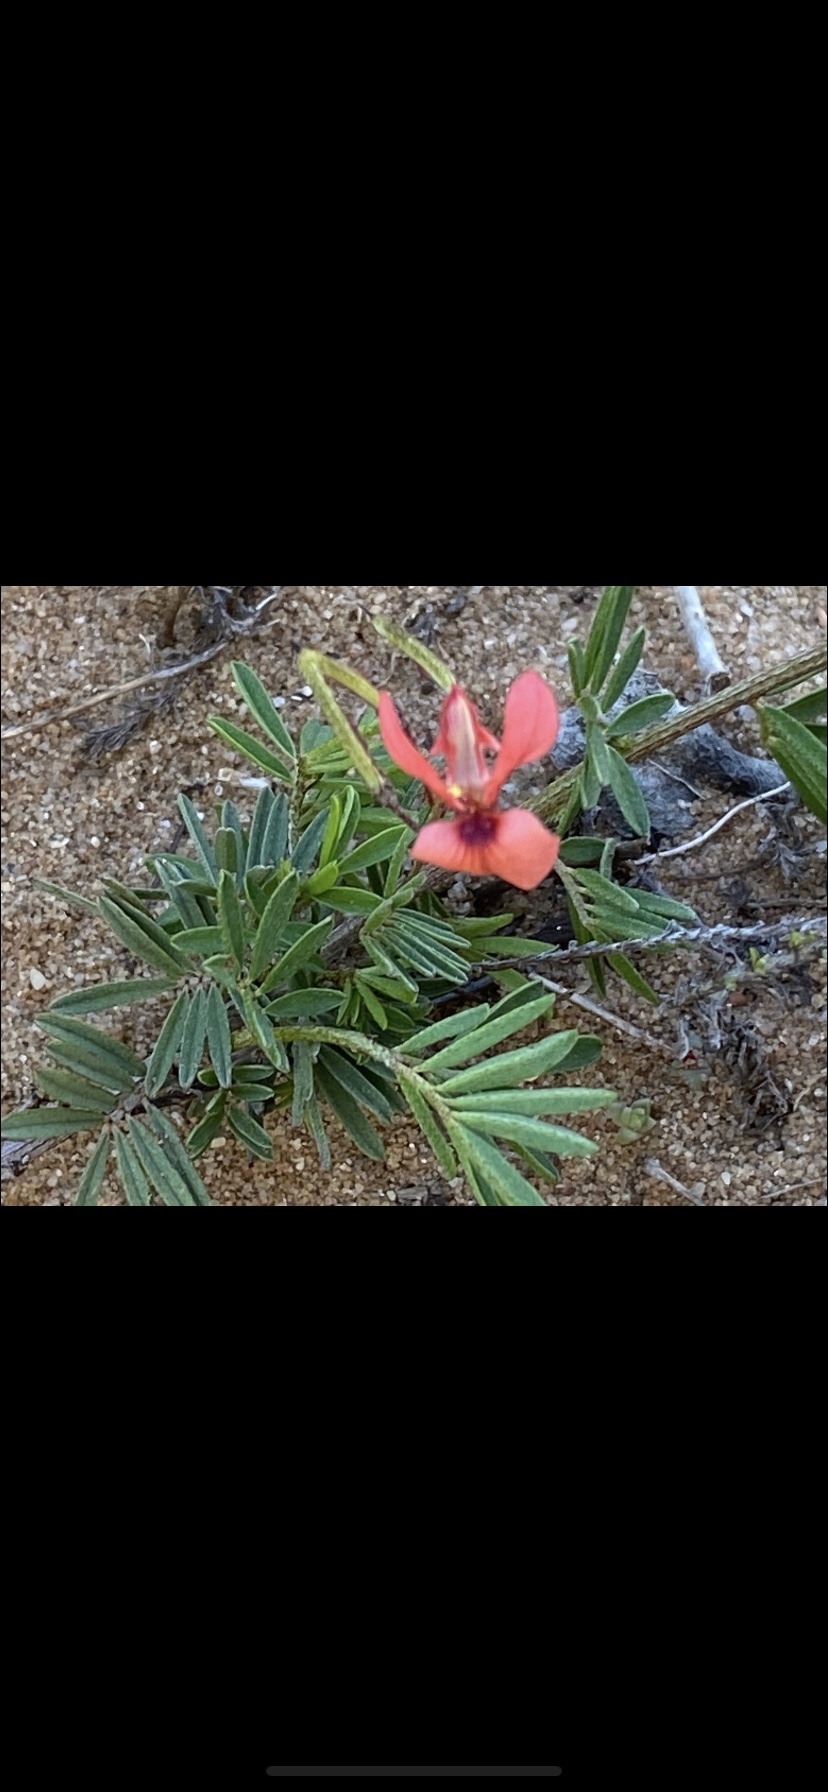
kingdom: Plantae
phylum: Tracheophyta
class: Magnoliopsida
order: Fabales
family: Fabaceae
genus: Indigofera
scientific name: Indigofera verrucosa
